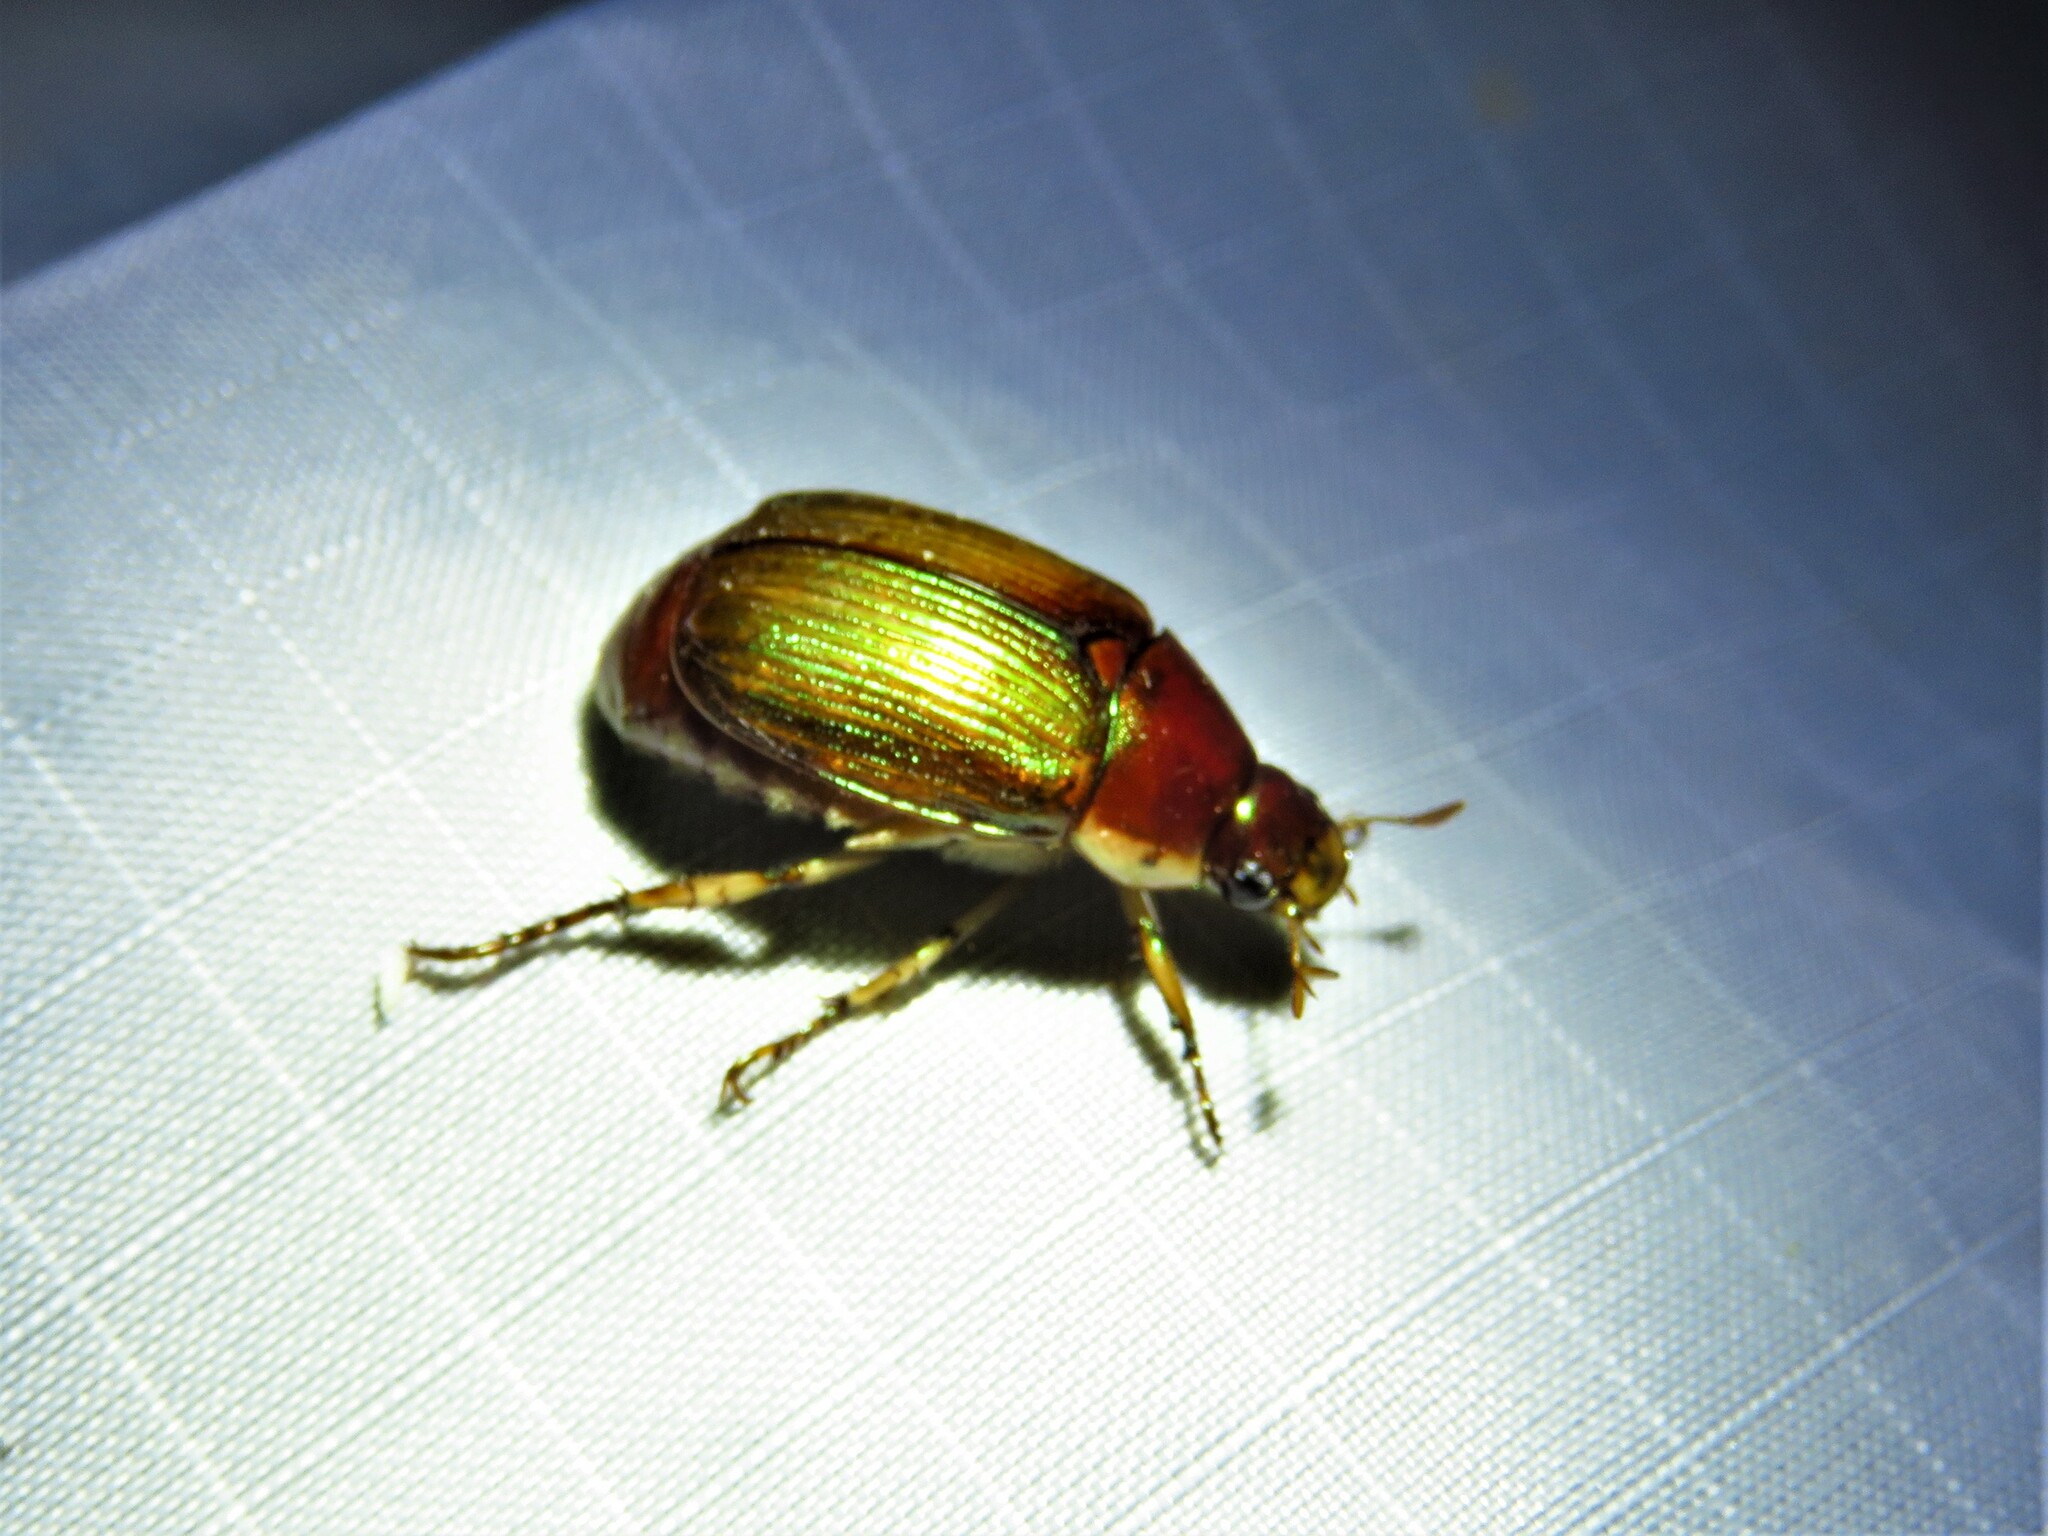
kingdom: Animalia
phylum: Arthropoda
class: Insecta
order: Coleoptera
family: Scarabaeidae
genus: Callistethus
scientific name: Callistethus marginatus
